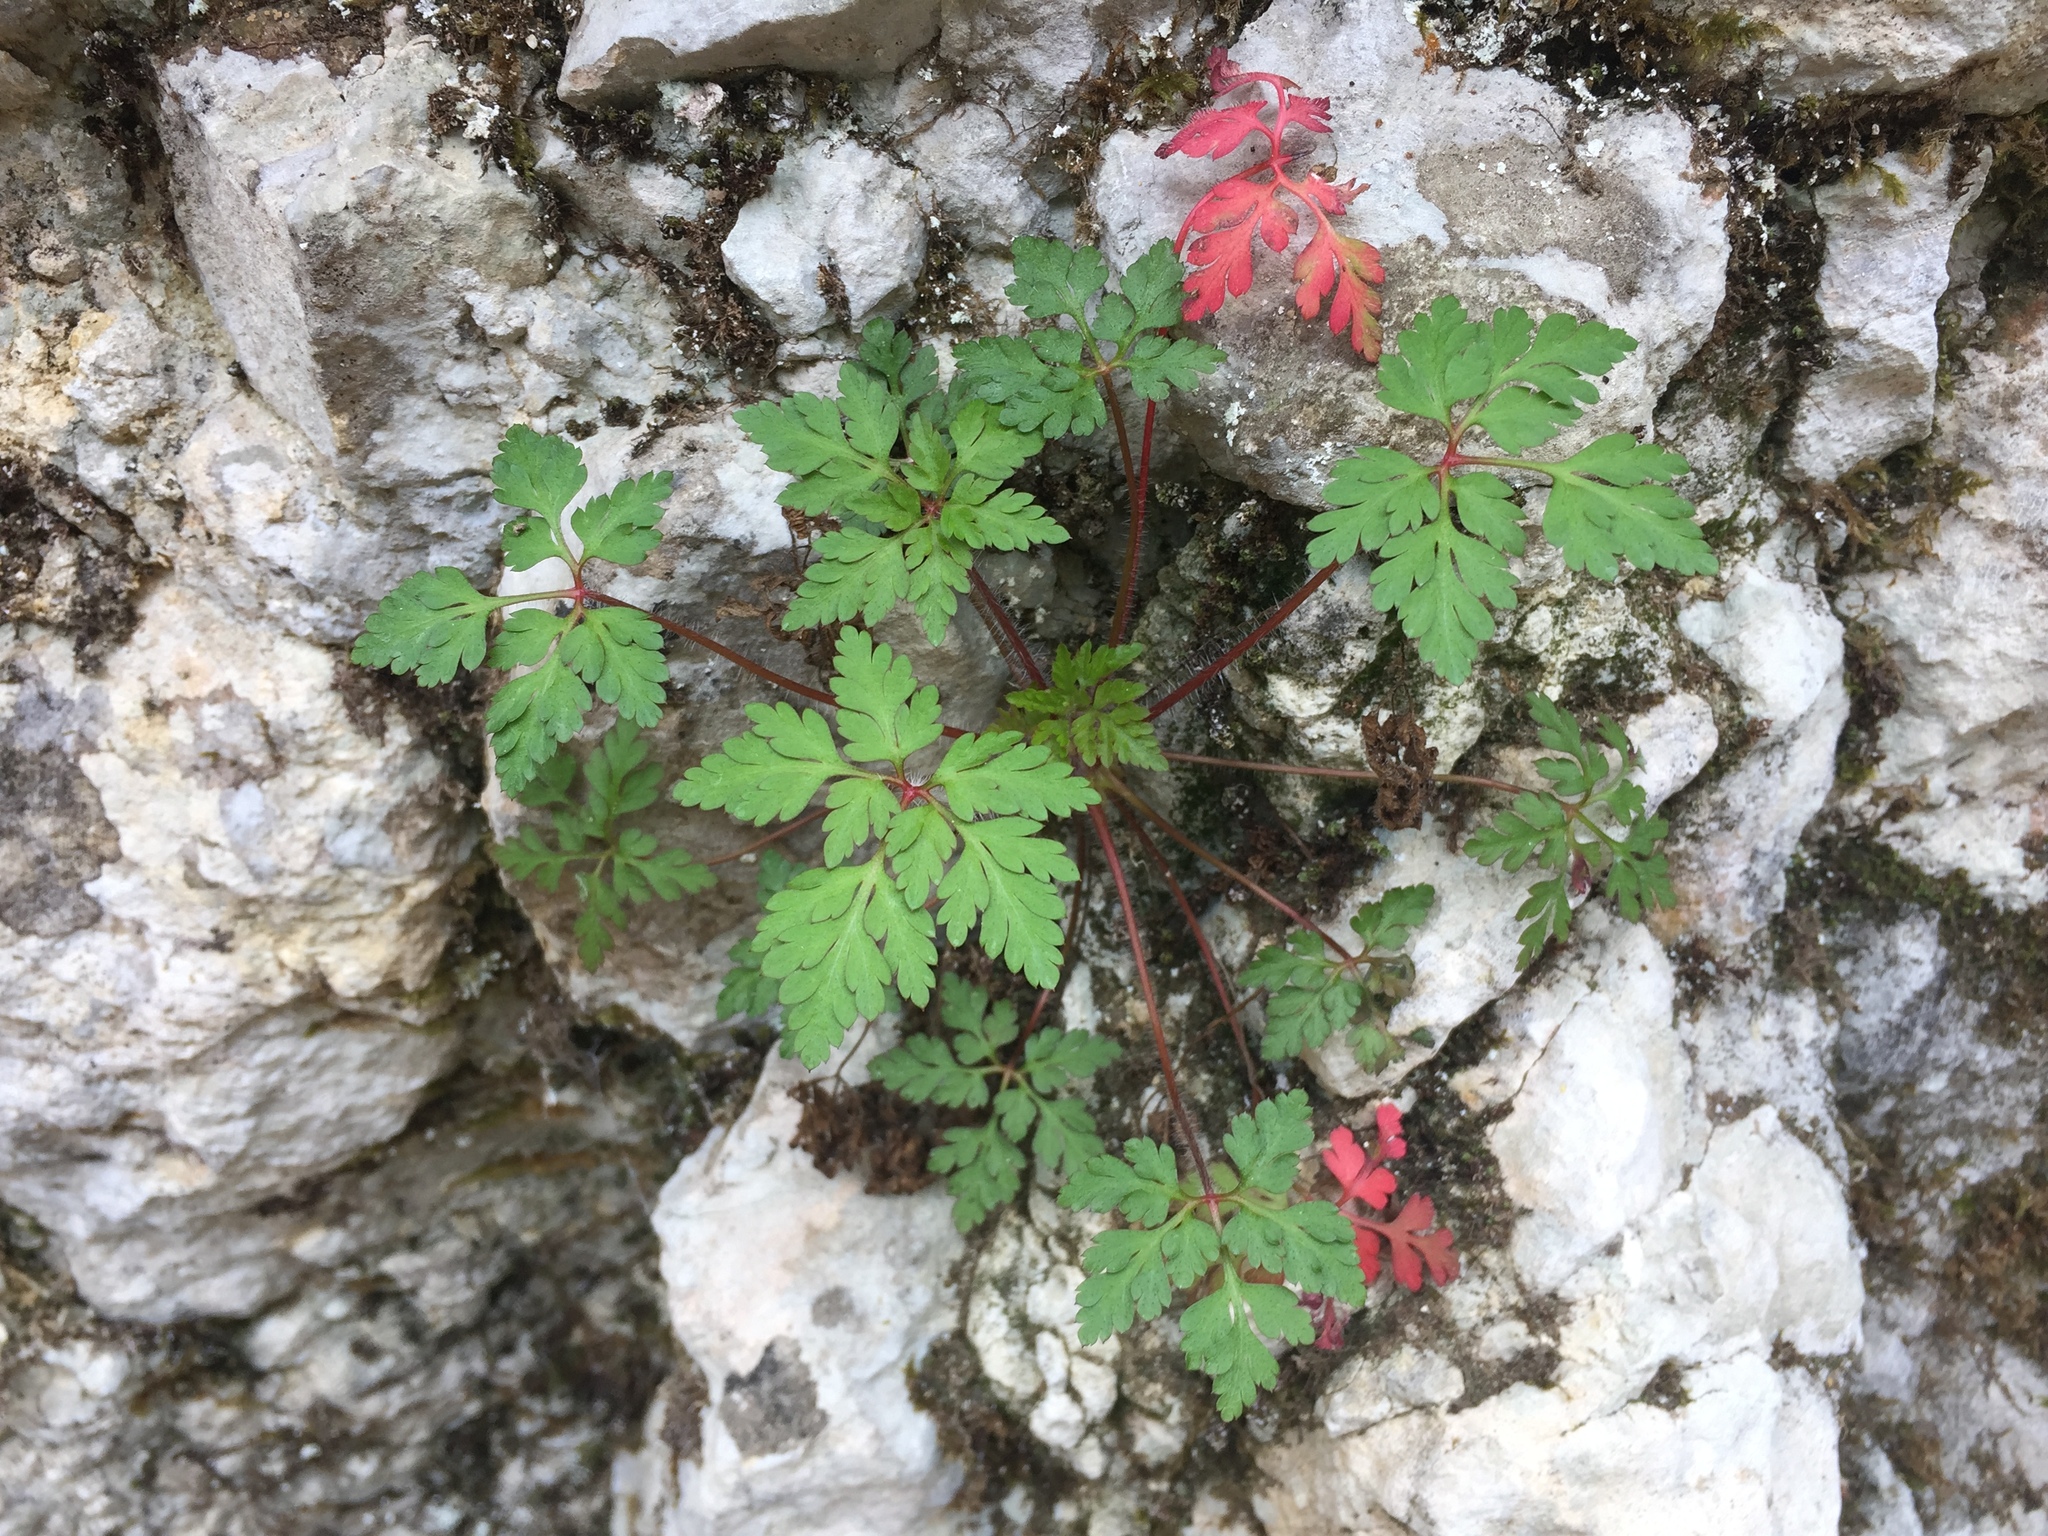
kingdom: Plantae
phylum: Tracheophyta
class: Magnoliopsida
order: Geraniales
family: Geraniaceae
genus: Geranium
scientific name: Geranium robertianum
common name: Herb-robert
